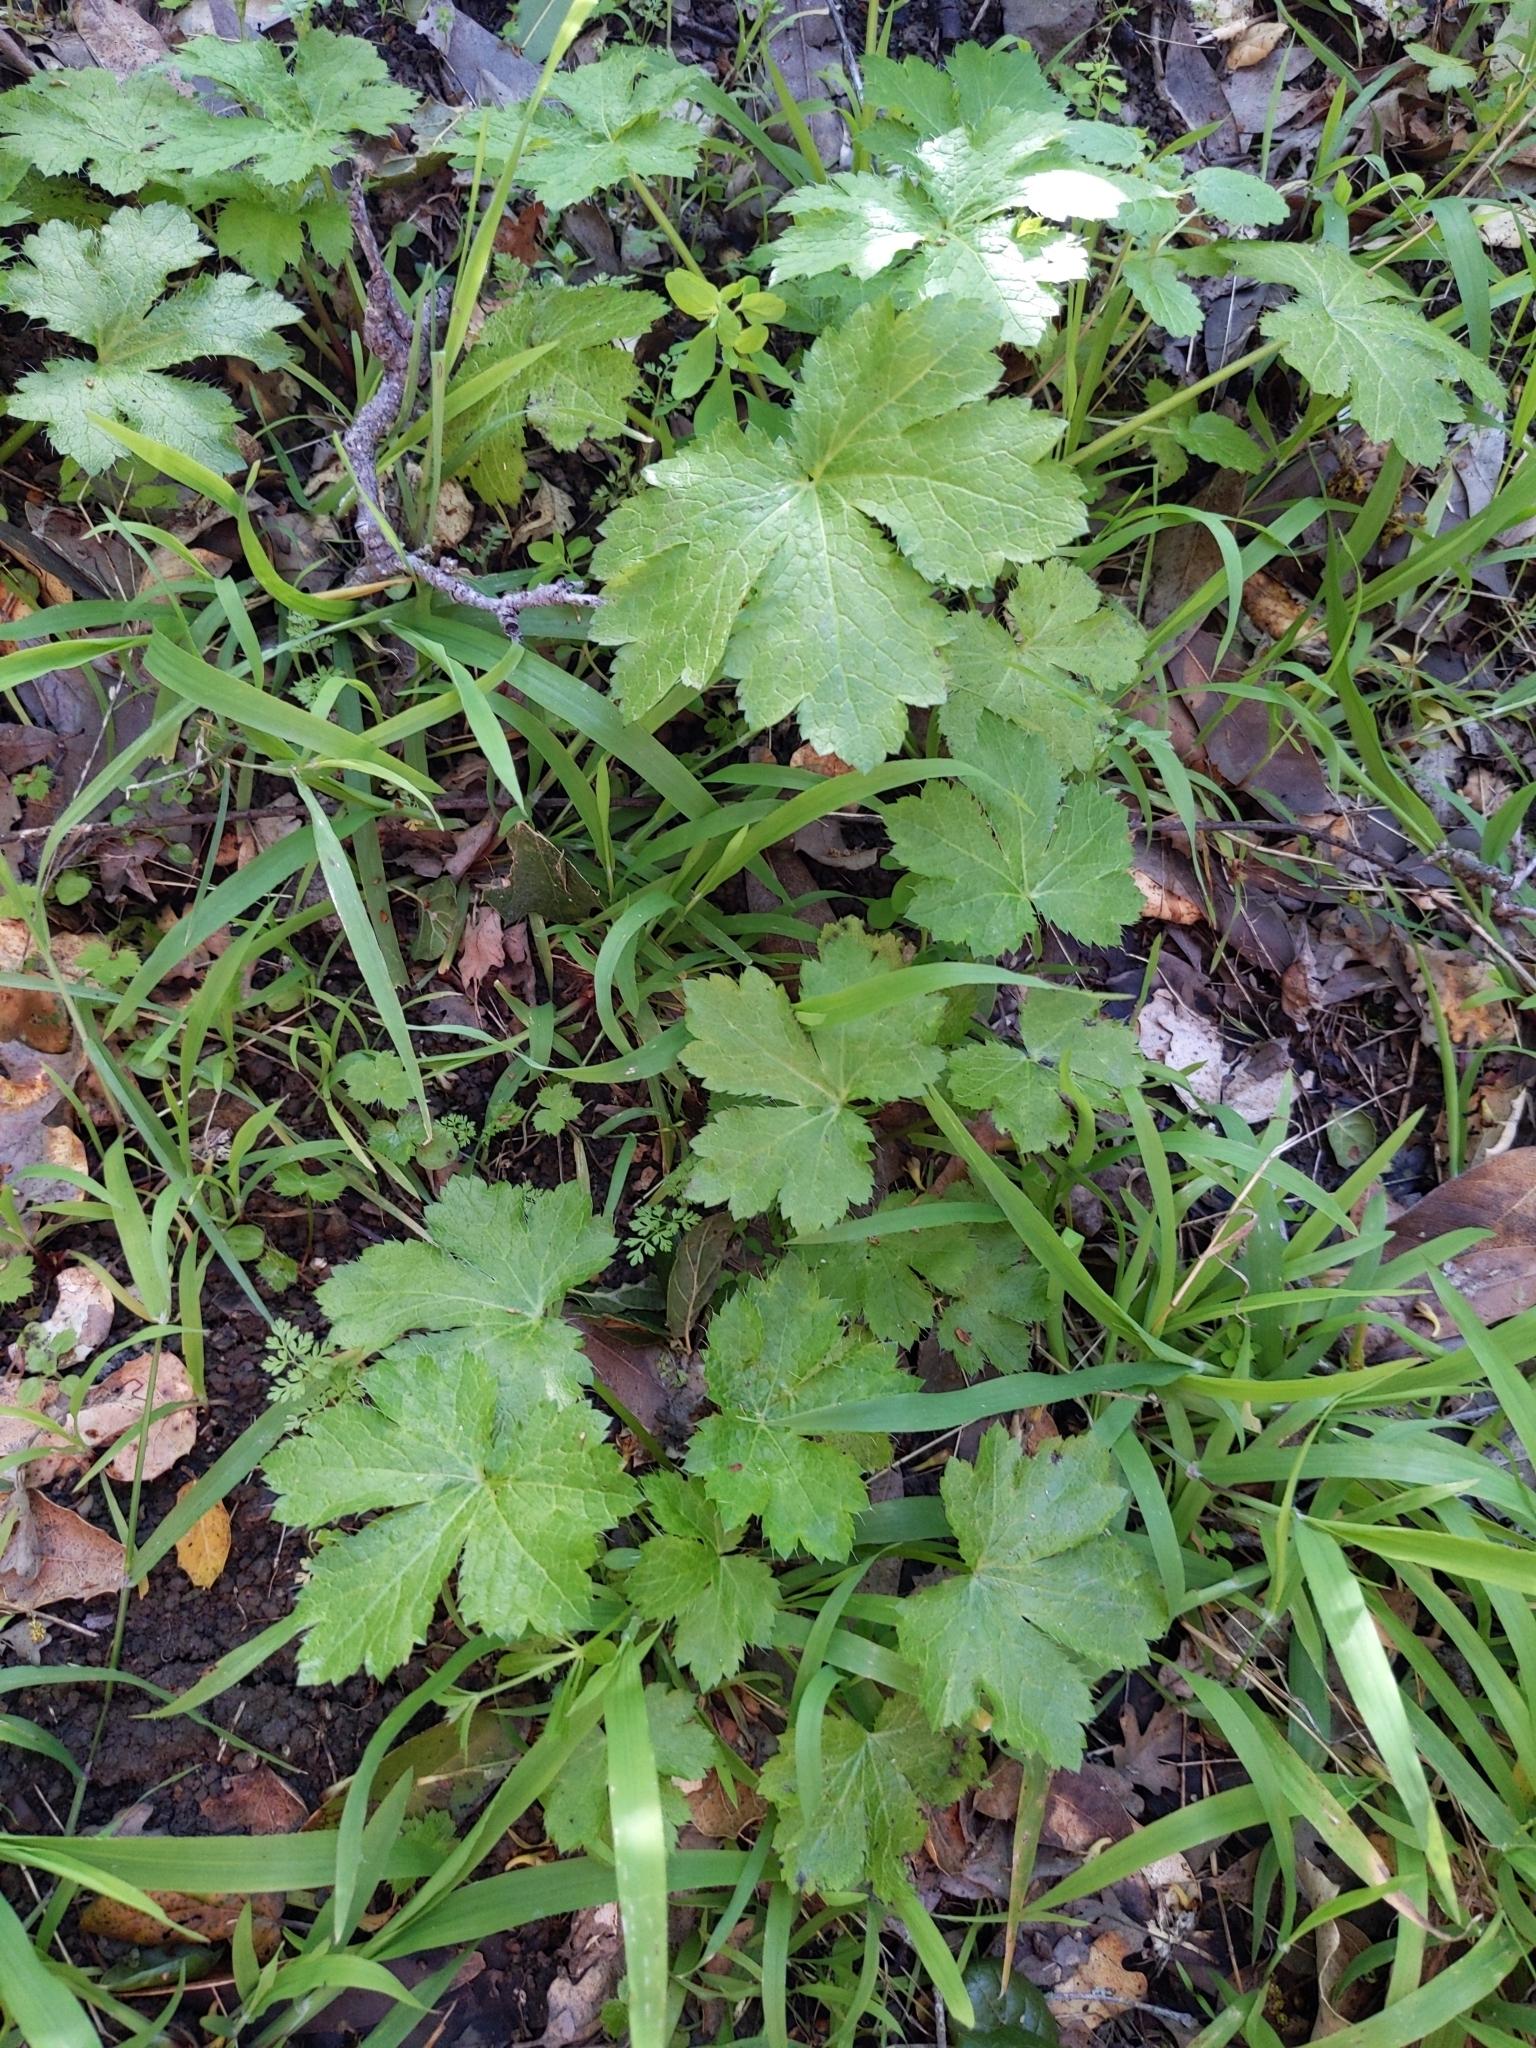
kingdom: Plantae
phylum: Tracheophyta
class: Magnoliopsida
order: Apiales
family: Apiaceae
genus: Sanicula
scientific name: Sanicula crassicaulis
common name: Western snakeroot
